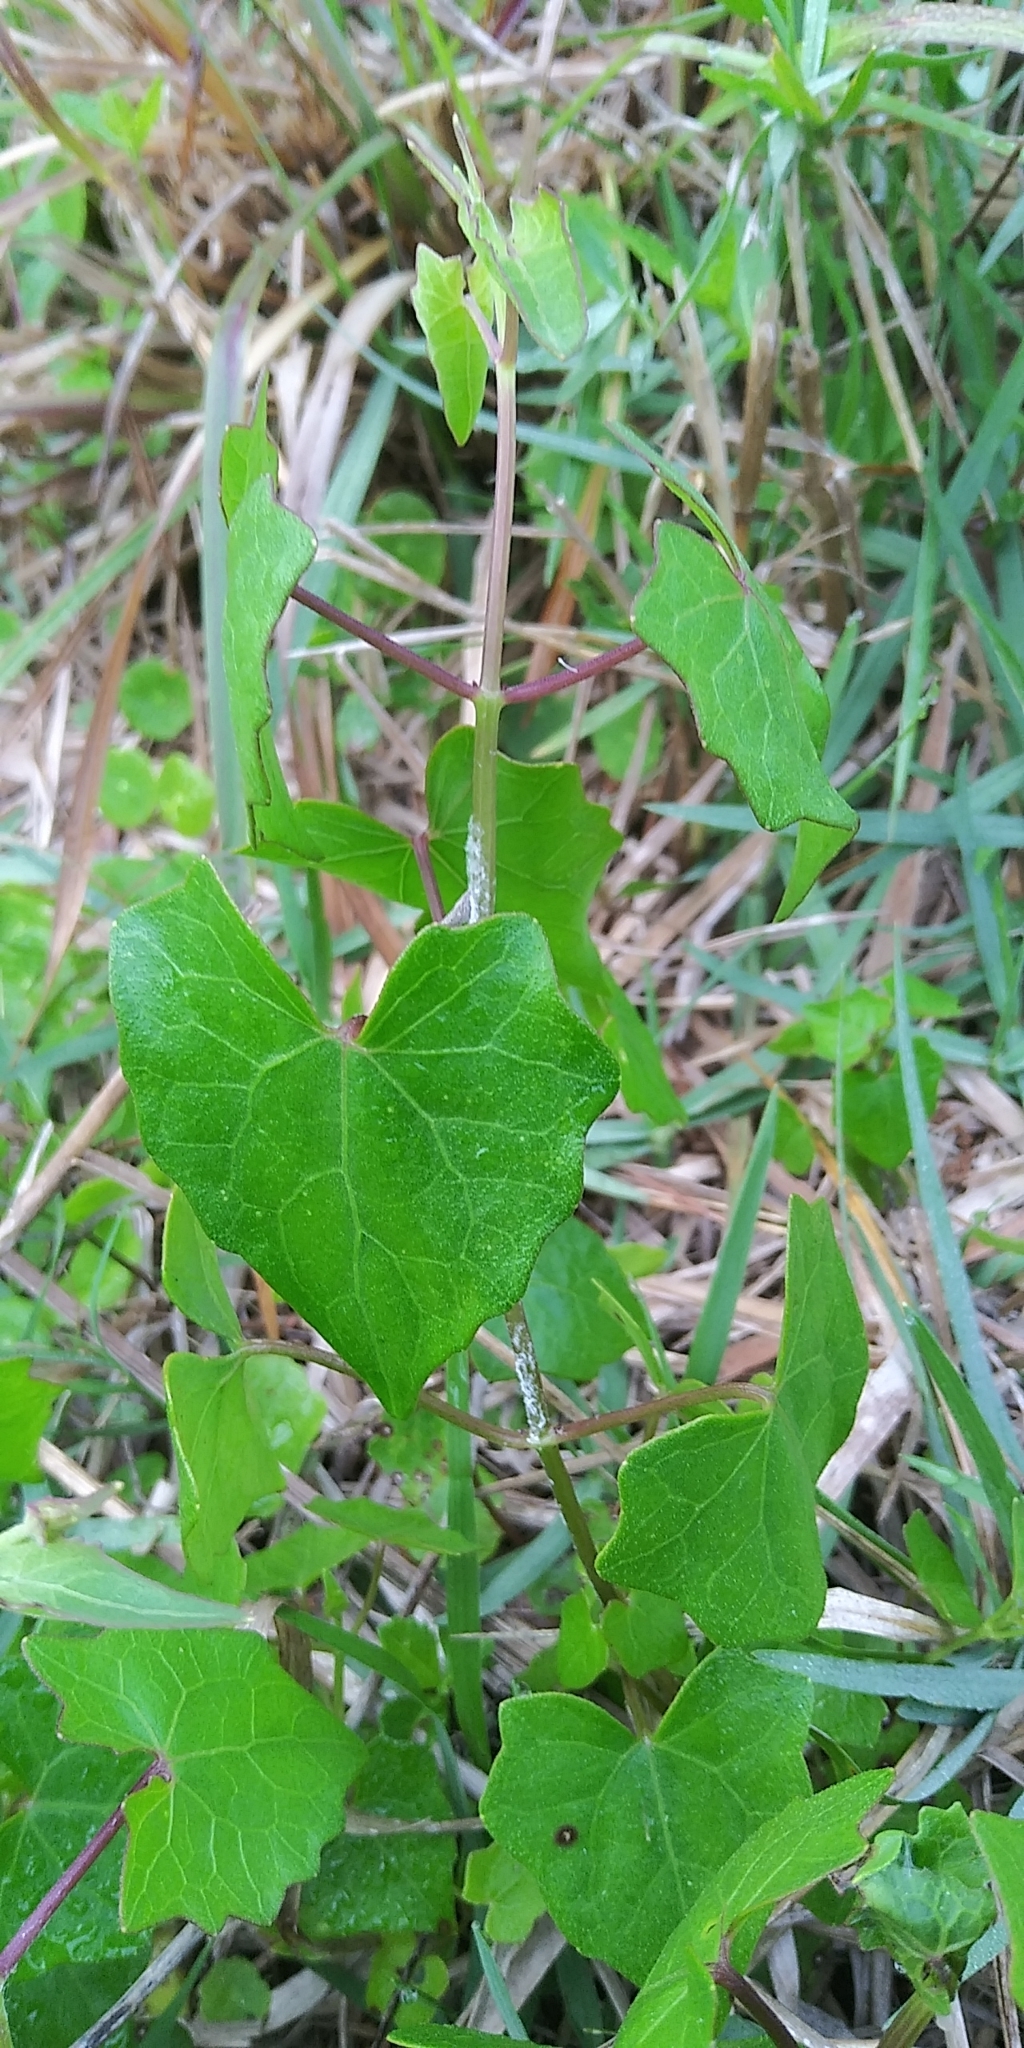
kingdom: Plantae
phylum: Tracheophyta
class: Magnoliopsida
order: Asterales
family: Asteraceae
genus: Mikania
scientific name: Mikania scandens
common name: Climbing hempvine
